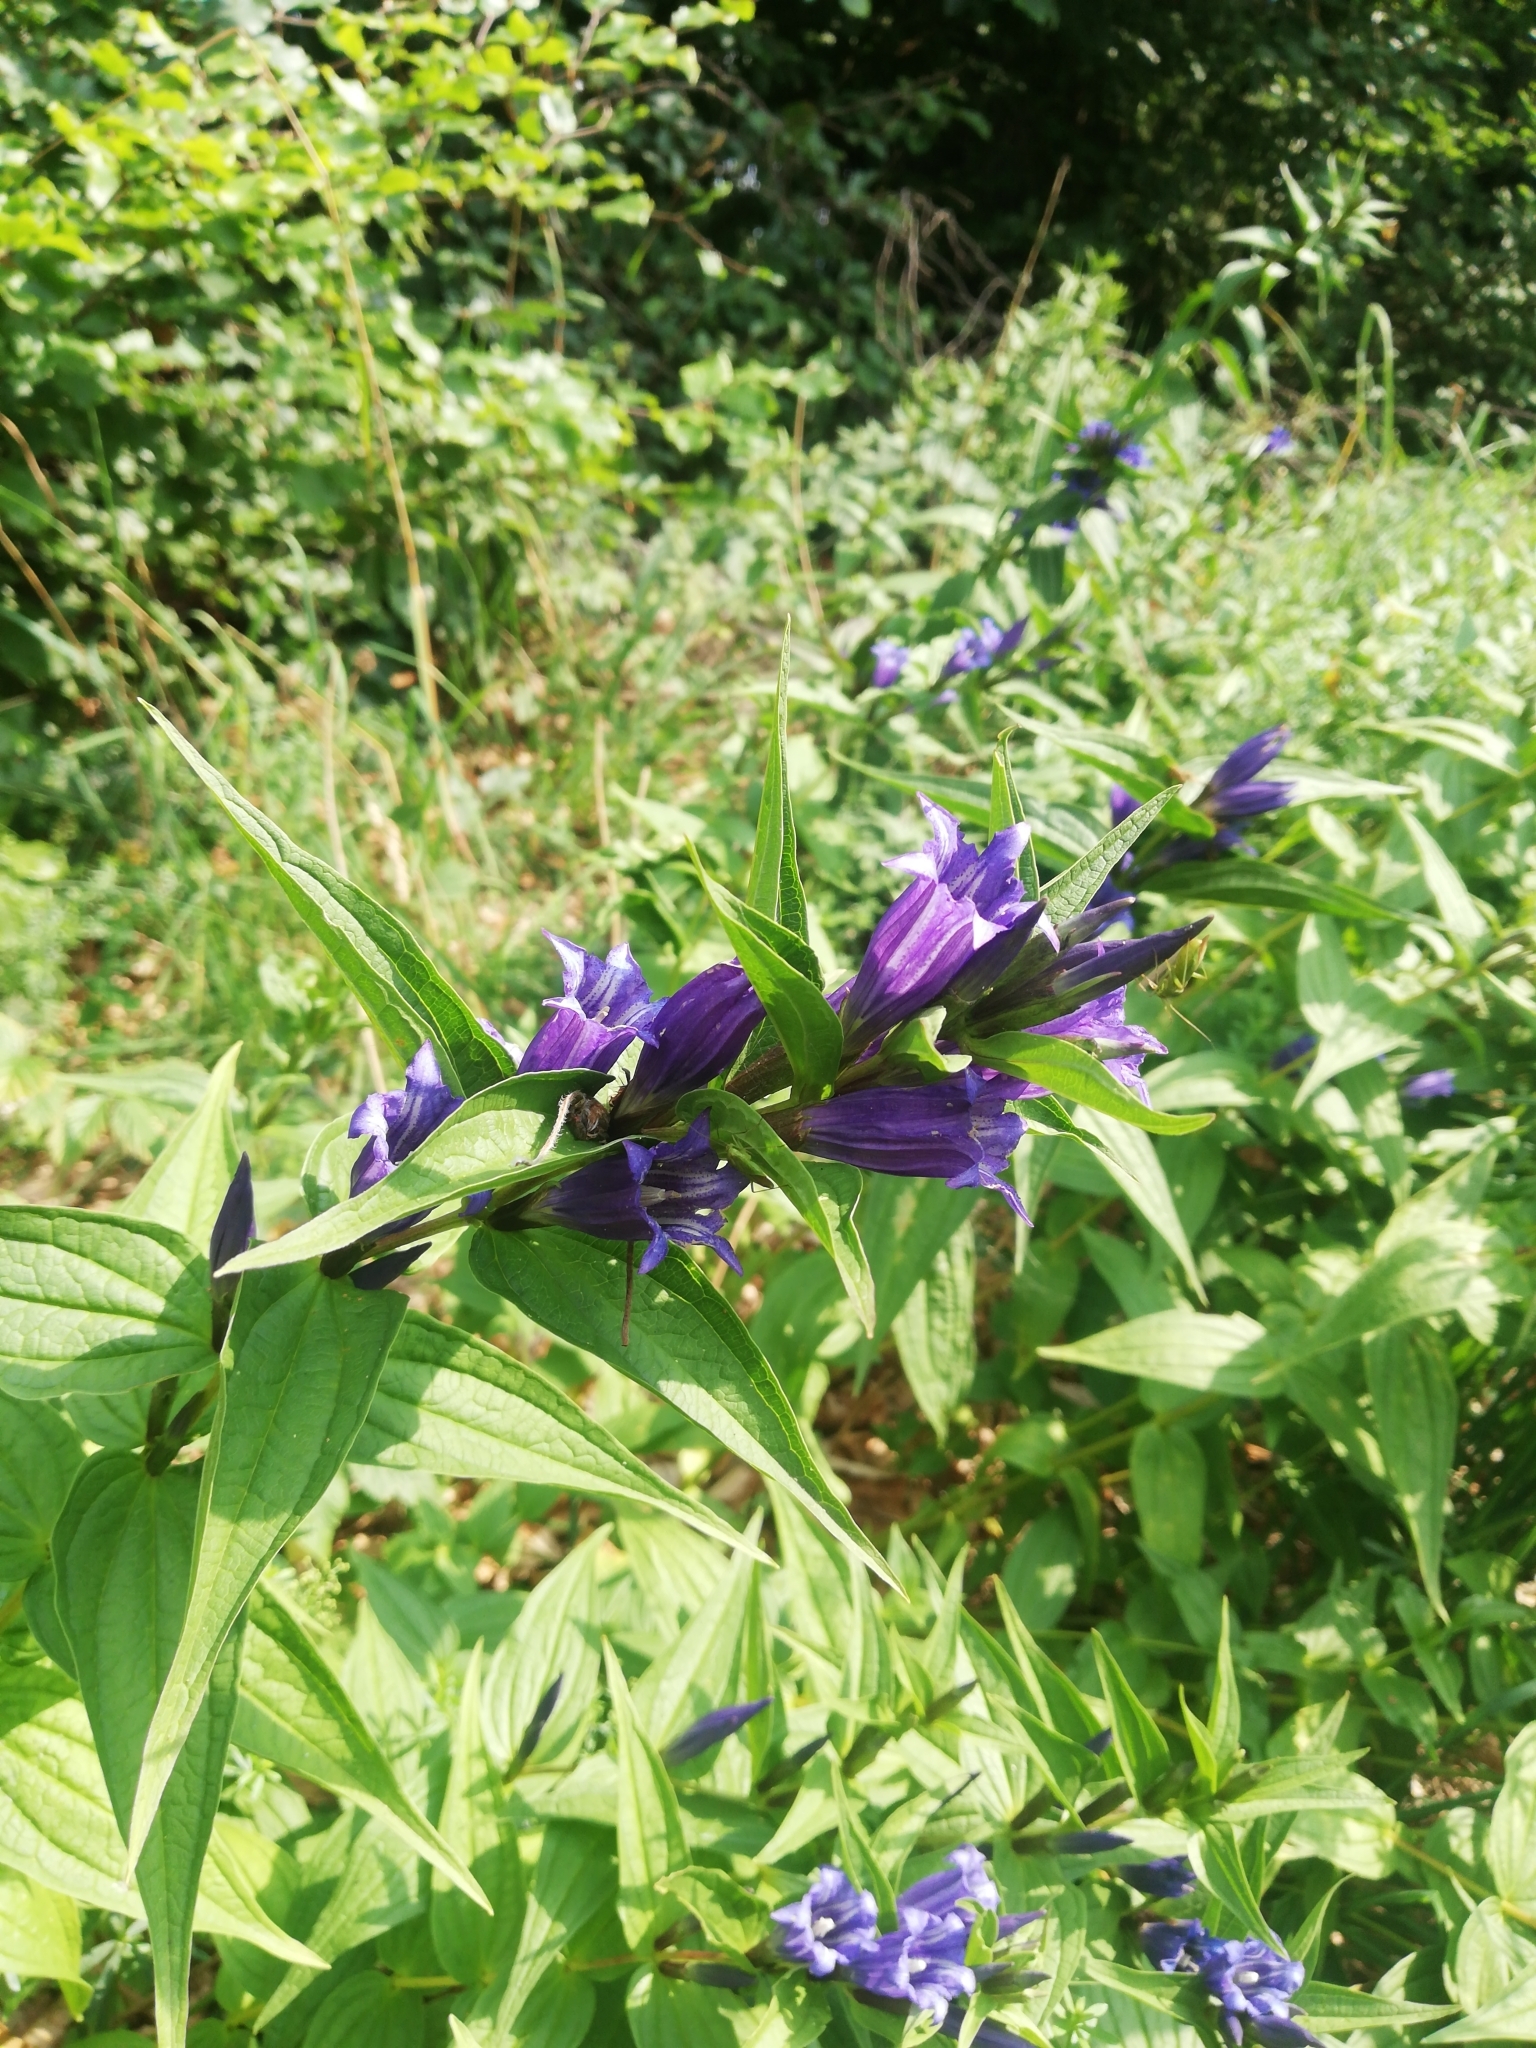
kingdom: Plantae
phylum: Tracheophyta
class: Magnoliopsida
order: Gentianales
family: Gentianaceae
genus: Gentiana
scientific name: Gentiana asclepiadea
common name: Willow gentian
